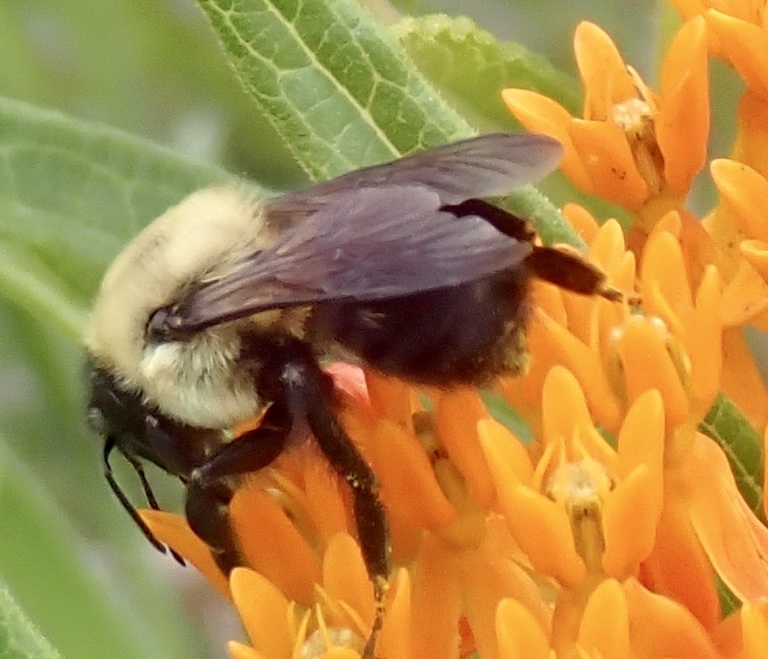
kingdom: Animalia
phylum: Arthropoda
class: Insecta
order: Hymenoptera
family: Apidae
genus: Bombus
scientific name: Bombus griseocollis
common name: Brown-belted bumble bee
